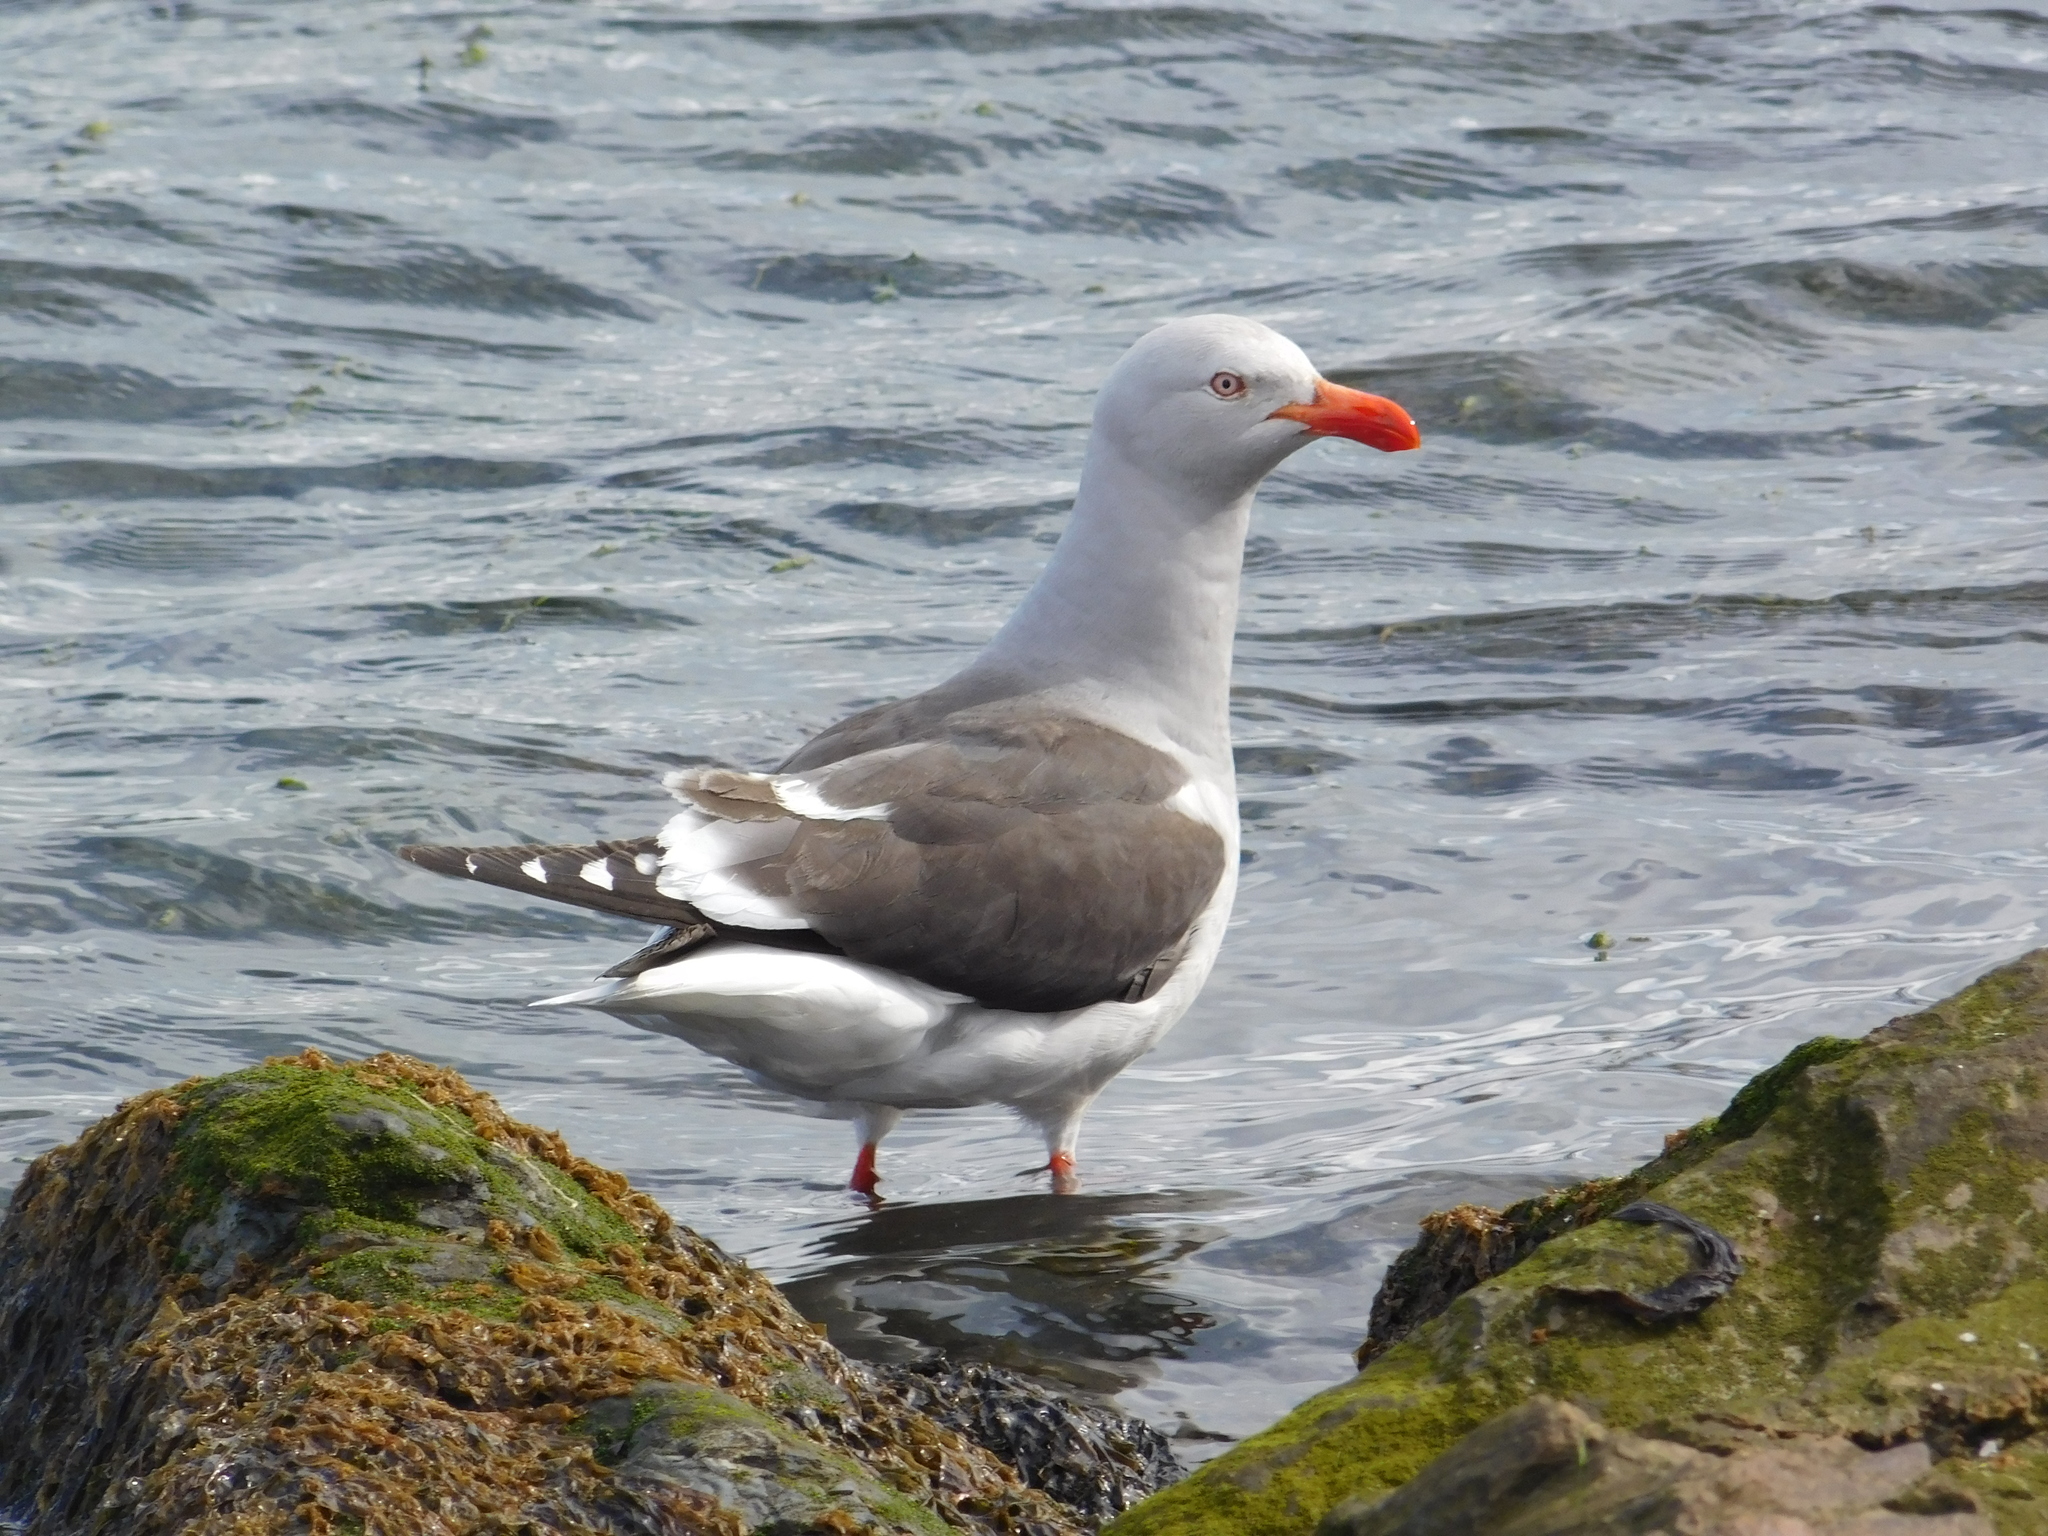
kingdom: Animalia
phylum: Chordata
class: Aves
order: Charadriiformes
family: Laridae
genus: Leucophaeus
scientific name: Leucophaeus scoresbii
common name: Dolphin gull
